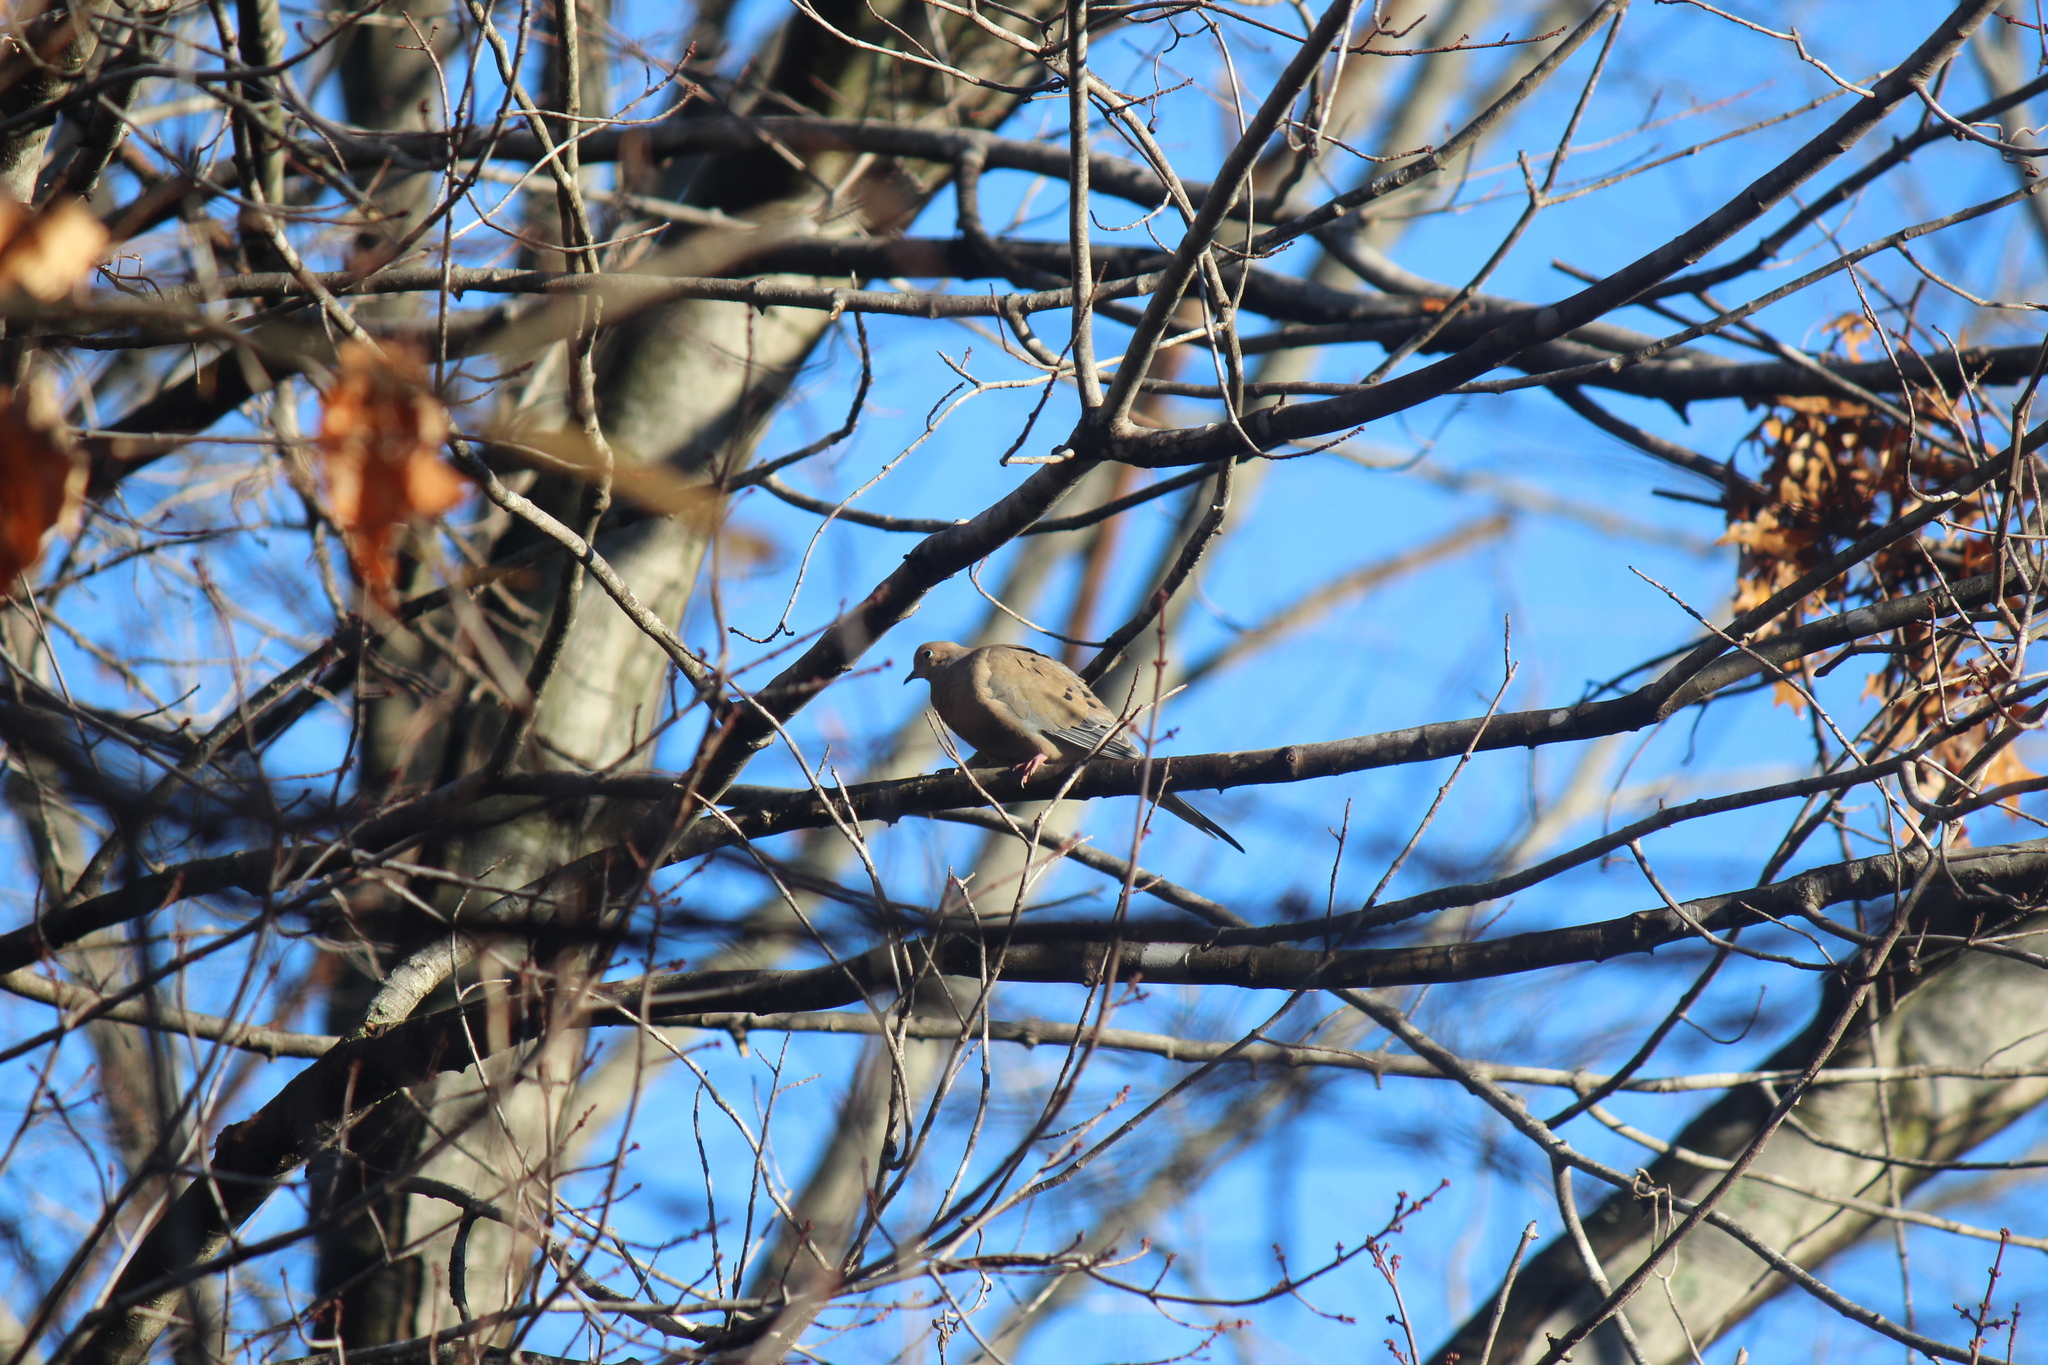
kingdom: Animalia
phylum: Chordata
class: Aves
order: Columbiformes
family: Columbidae
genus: Zenaida
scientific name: Zenaida macroura
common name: Mourning dove
